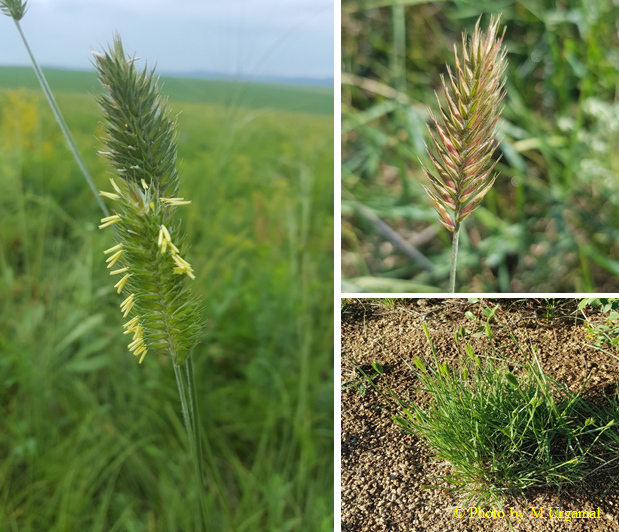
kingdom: Plantae
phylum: Tracheophyta
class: Liliopsida
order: Poales
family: Poaceae
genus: Agropyron
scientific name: Agropyron cristatum
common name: Crested wheatgrass
